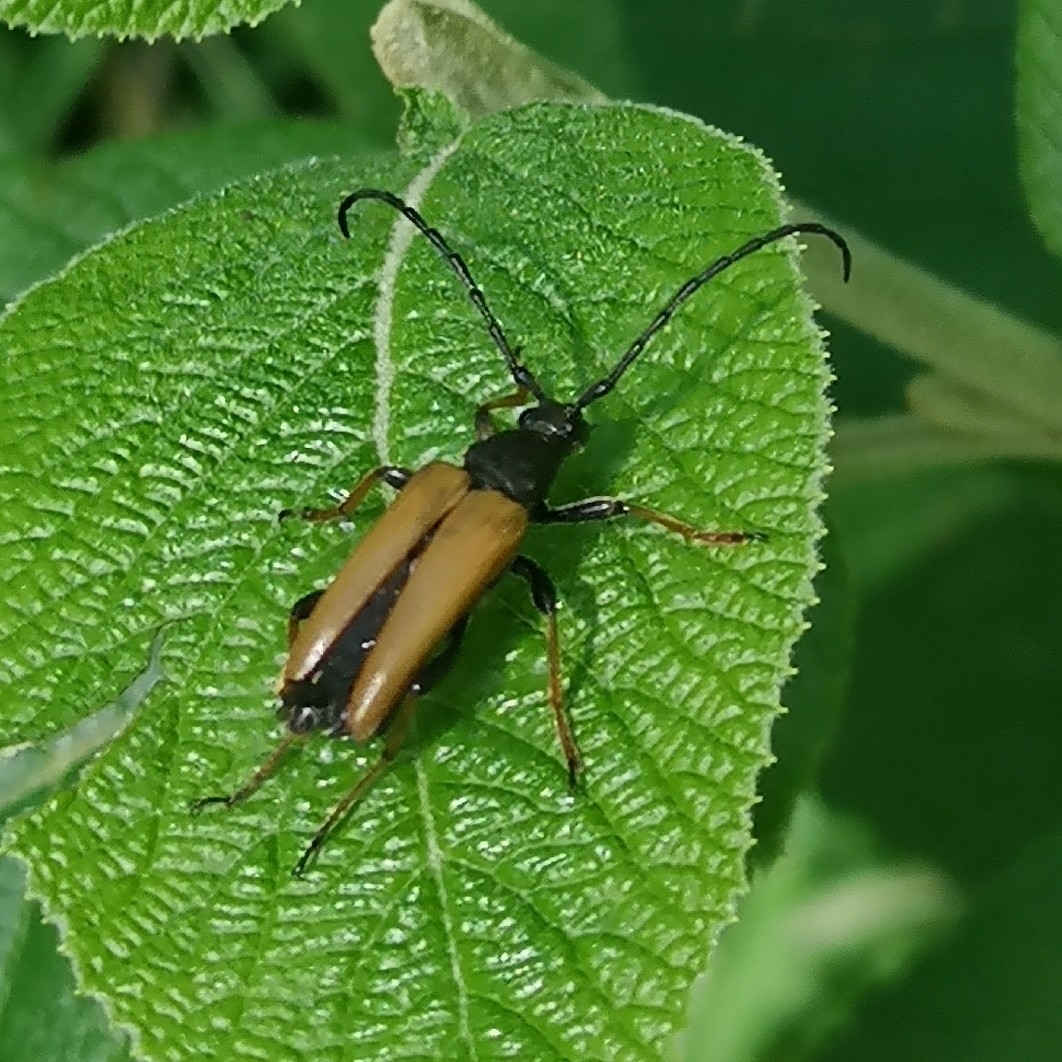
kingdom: Animalia
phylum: Arthropoda
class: Insecta
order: Coleoptera
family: Cerambycidae
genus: Stictoleptura
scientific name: Stictoleptura rubra
